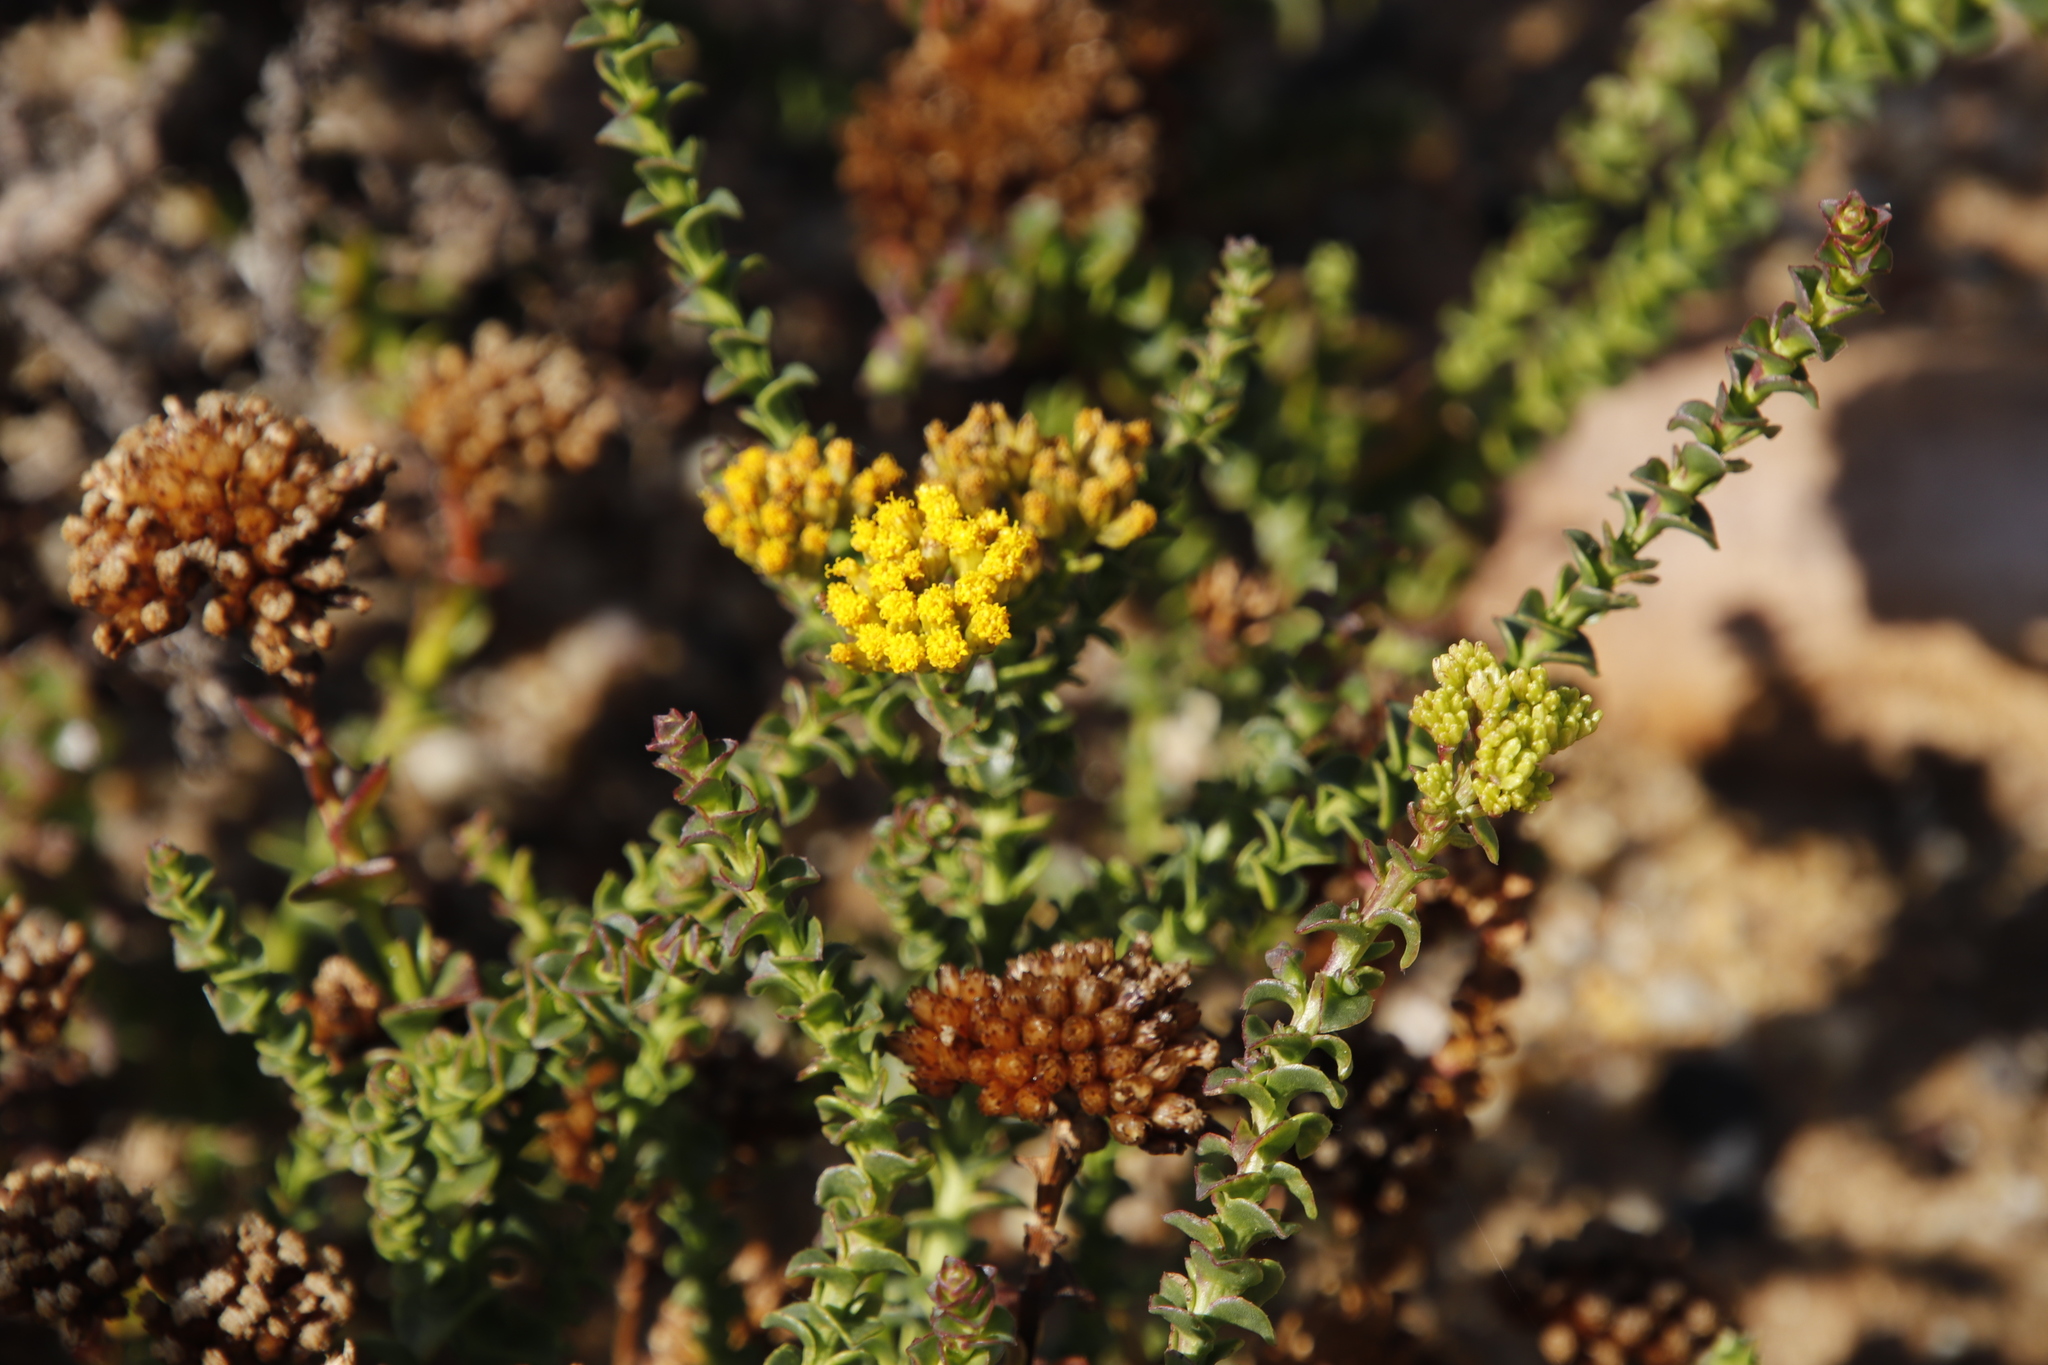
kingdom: Plantae
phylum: Tracheophyta
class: Magnoliopsida
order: Asterales
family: Asteraceae
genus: Athanasia
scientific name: Athanasia dentata
